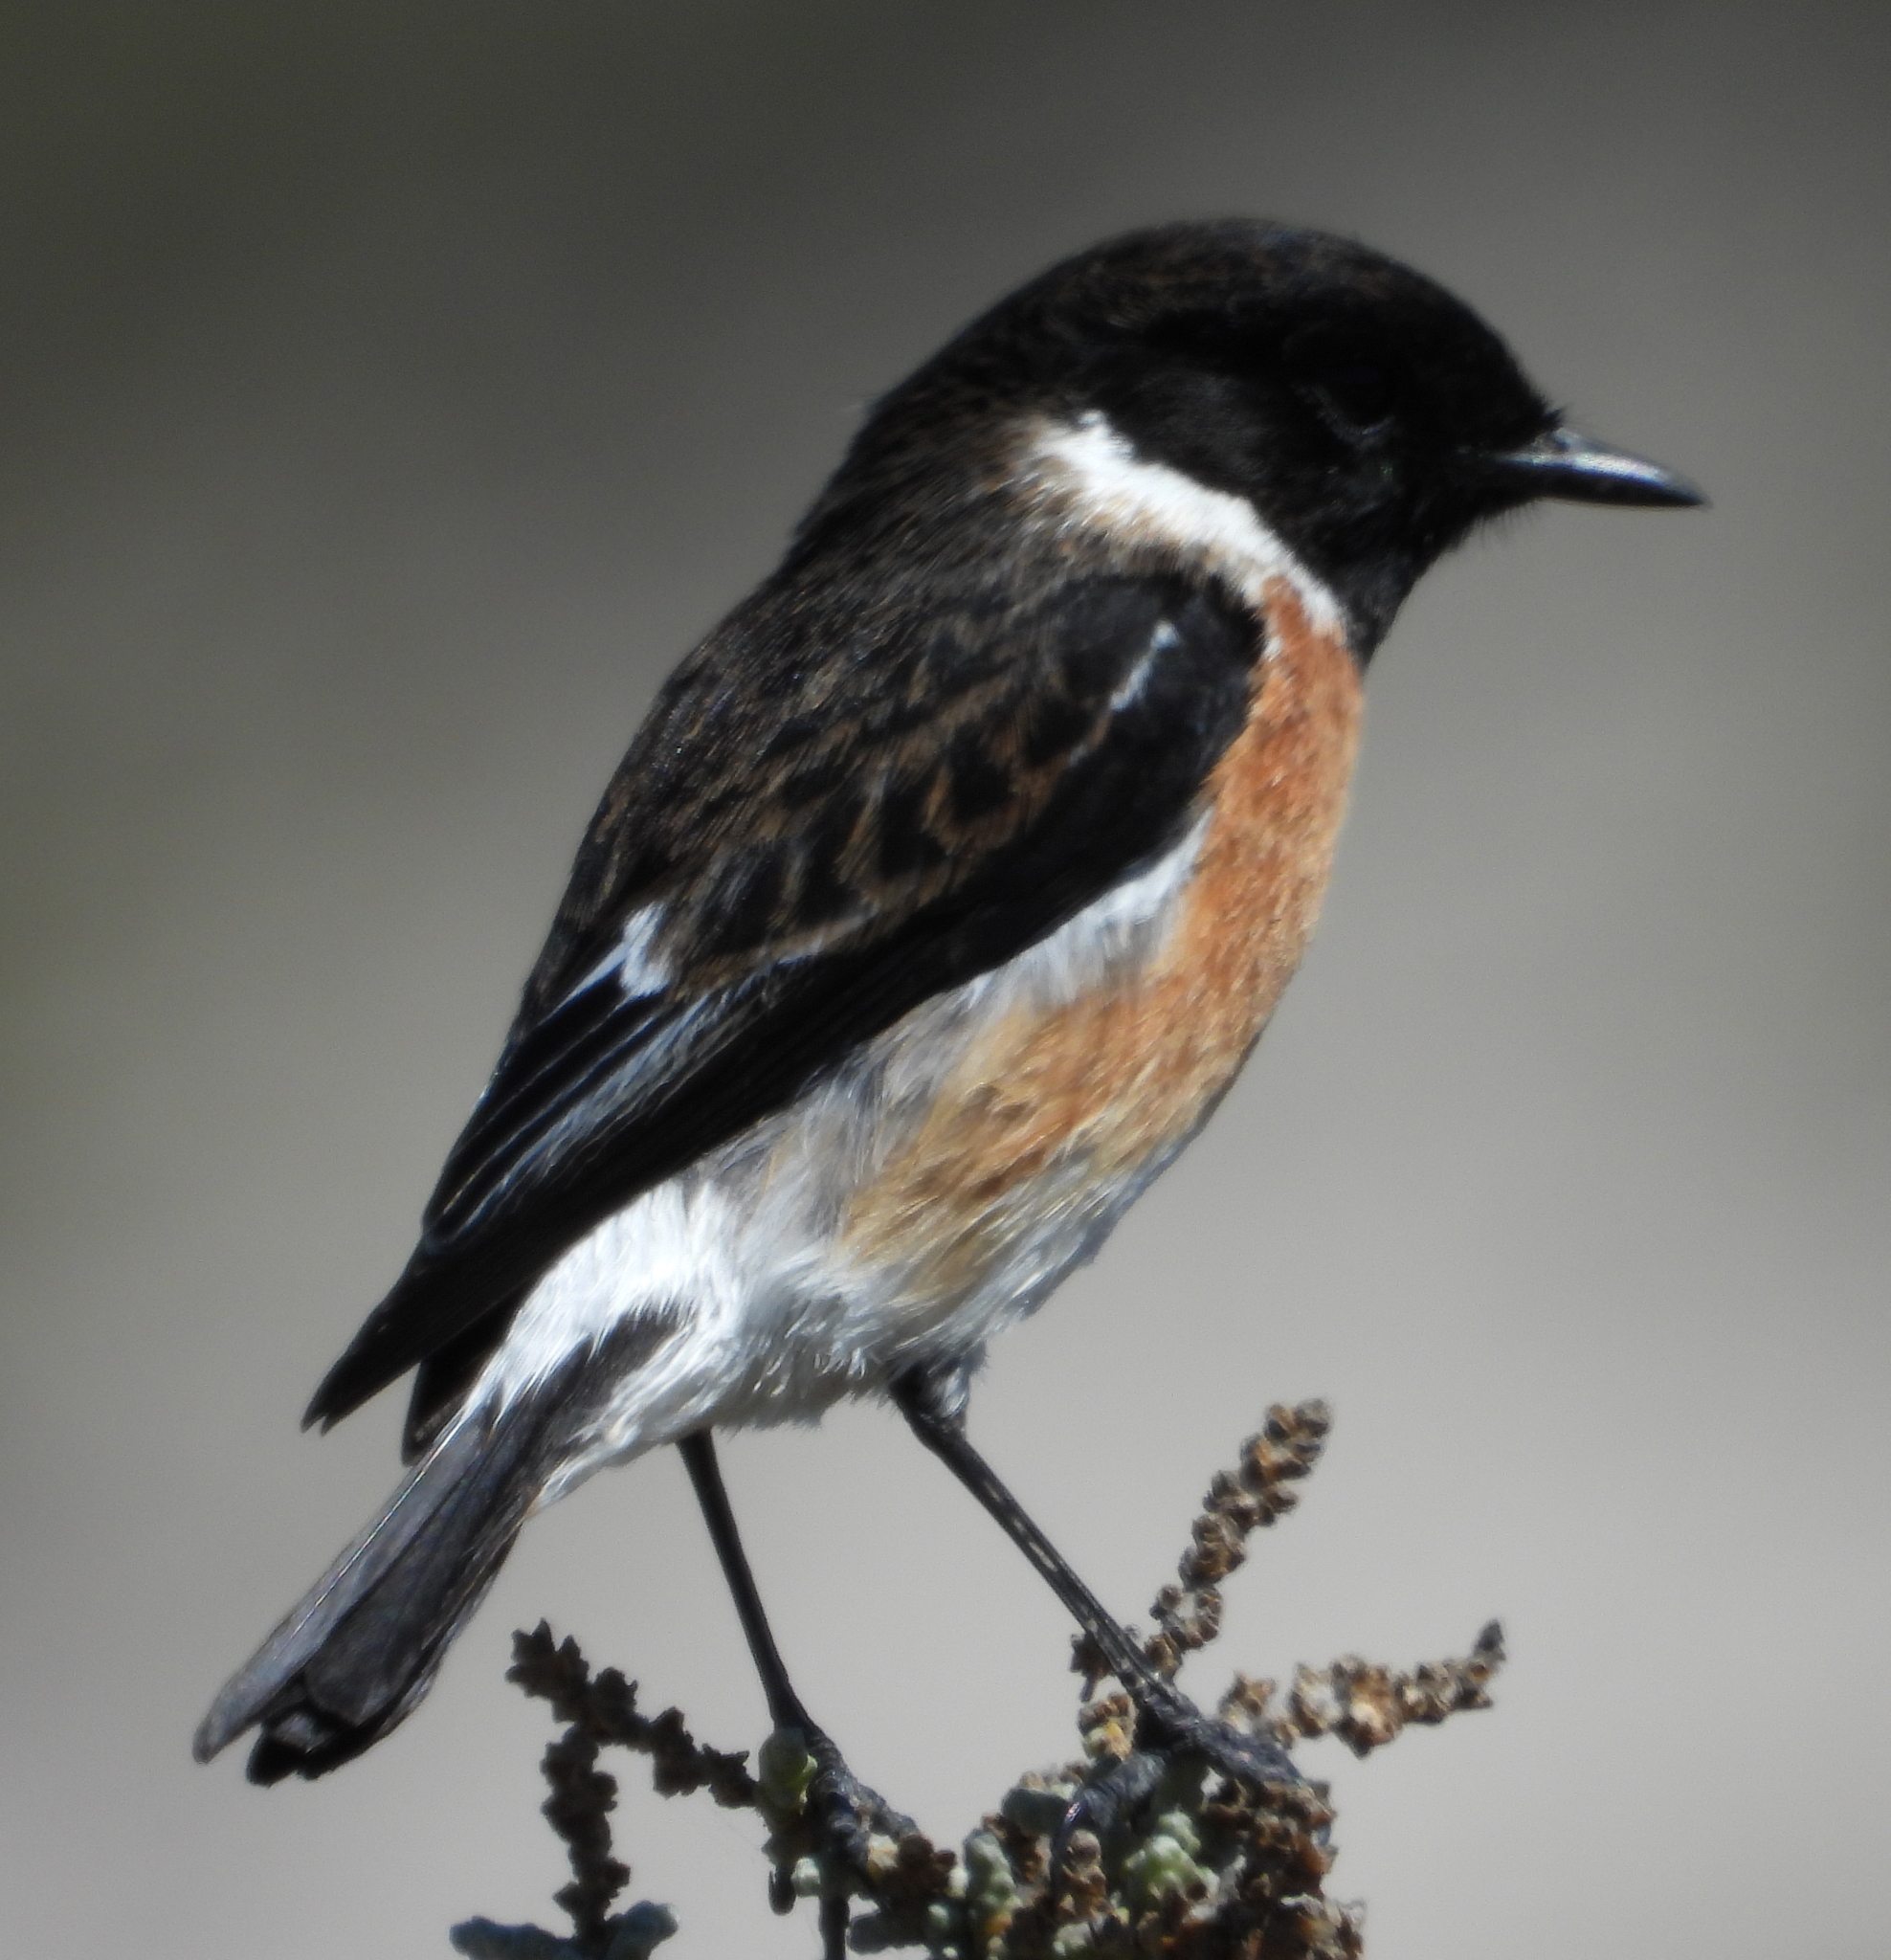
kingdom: Animalia
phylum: Chordata
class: Aves
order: Passeriformes
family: Muscicapidae
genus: Saxicola
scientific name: Saxicola torquatus
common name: African stonechat
